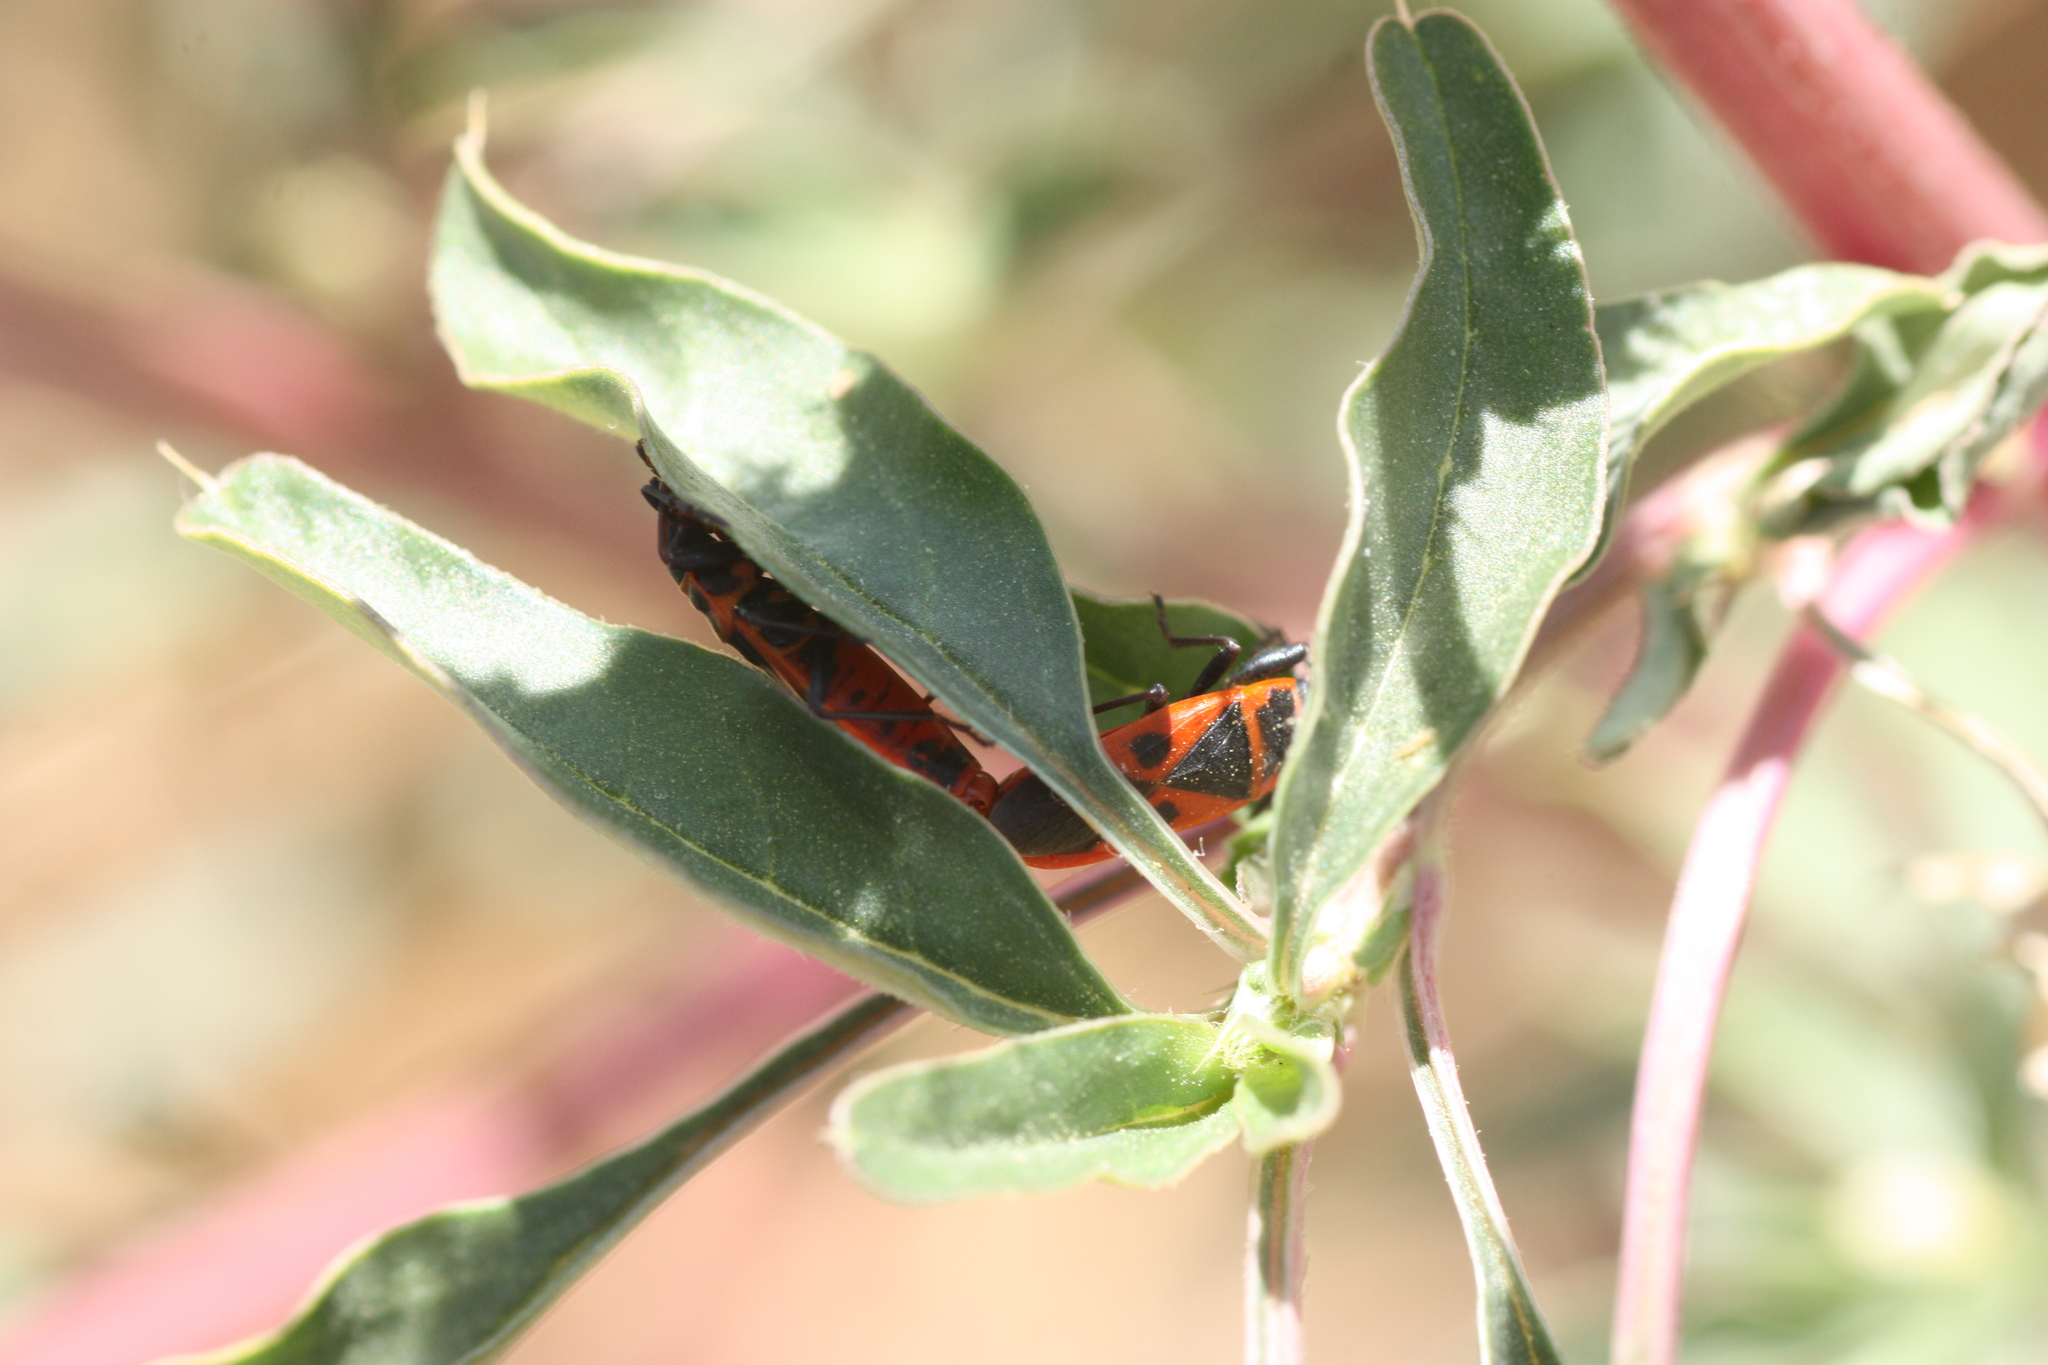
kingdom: Animalia
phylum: Arthropoda
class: Insecta
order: Hemiptera
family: Pyrrhocoridae
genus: Scantius
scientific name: Scantius aegyptius
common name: Red bug
